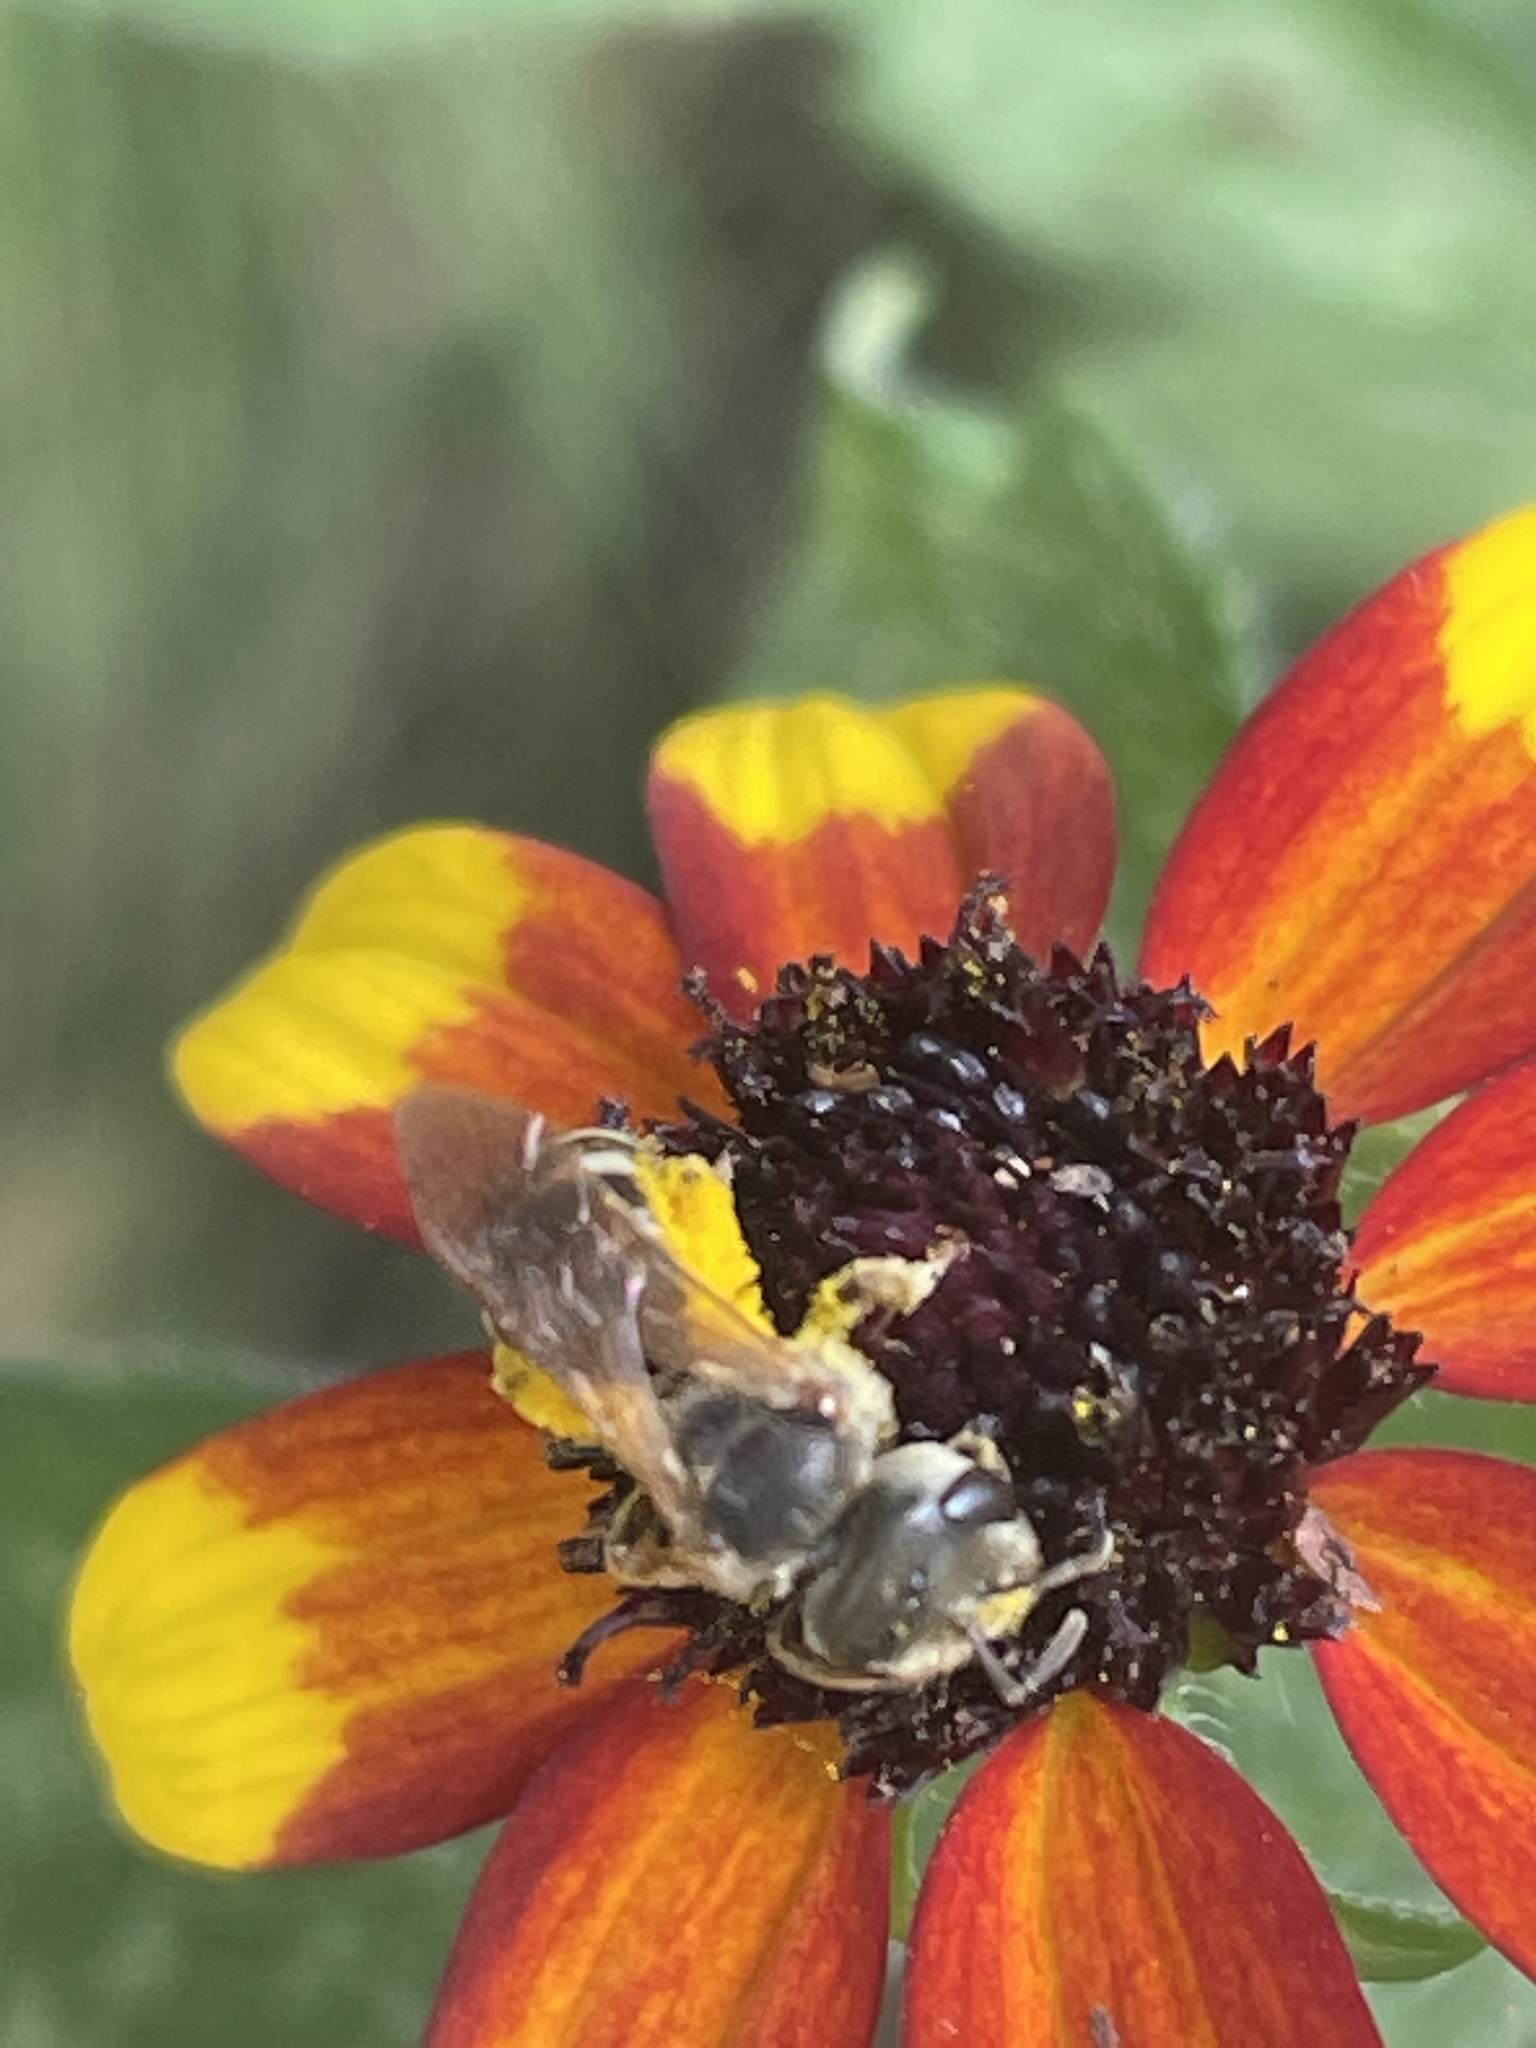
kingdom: Animalia
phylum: Arthropoda
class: Insecta
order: Hymenoptera
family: Halictidae
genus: Halictus
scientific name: Halictus ligatus
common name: Ligated furrow bee
